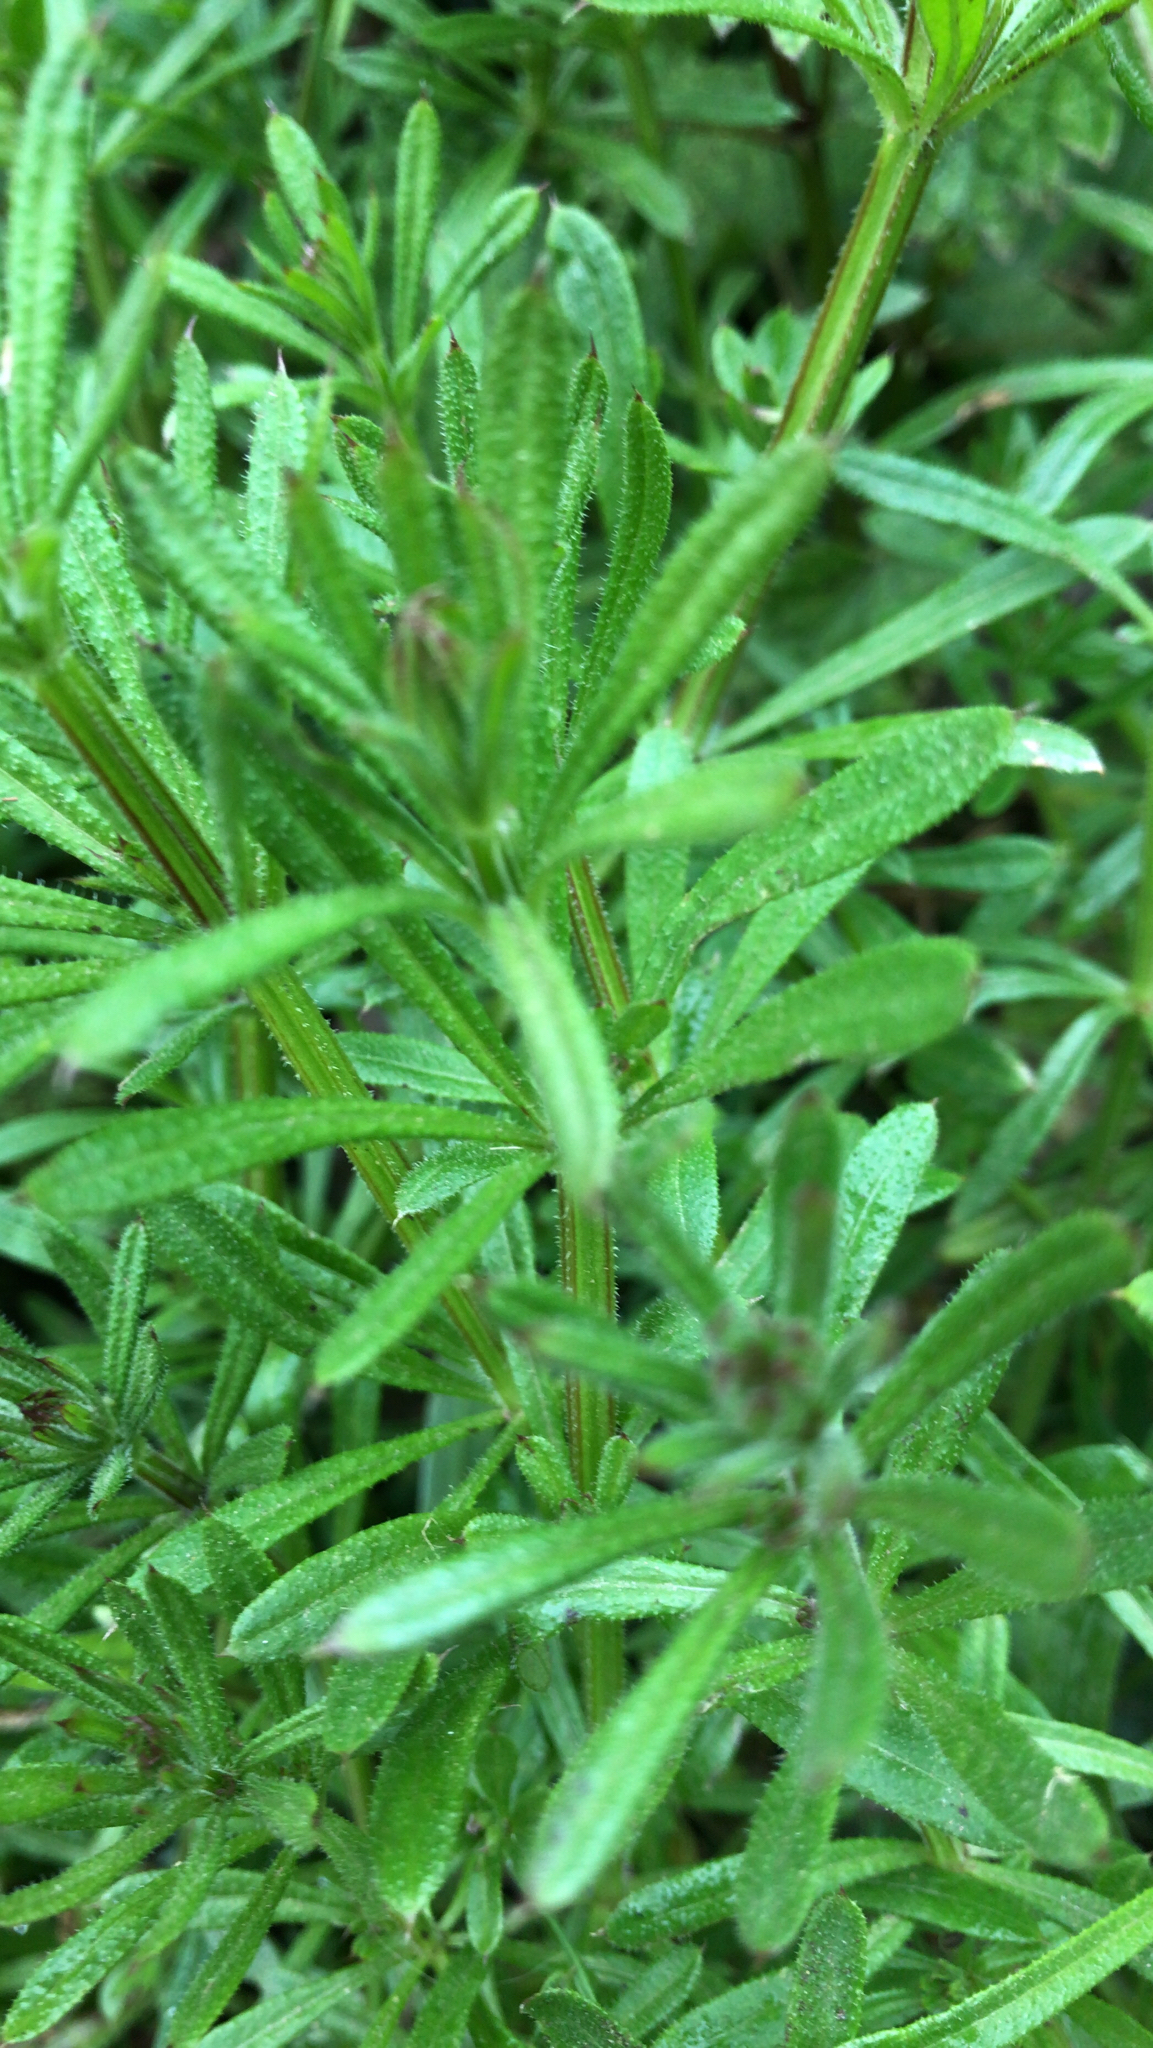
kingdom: Plantae
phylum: Tracheophyta
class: Magnoliopsida
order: Gentianales
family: Rubiaceae
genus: Galium
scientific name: Galium aparine
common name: Cleavers
